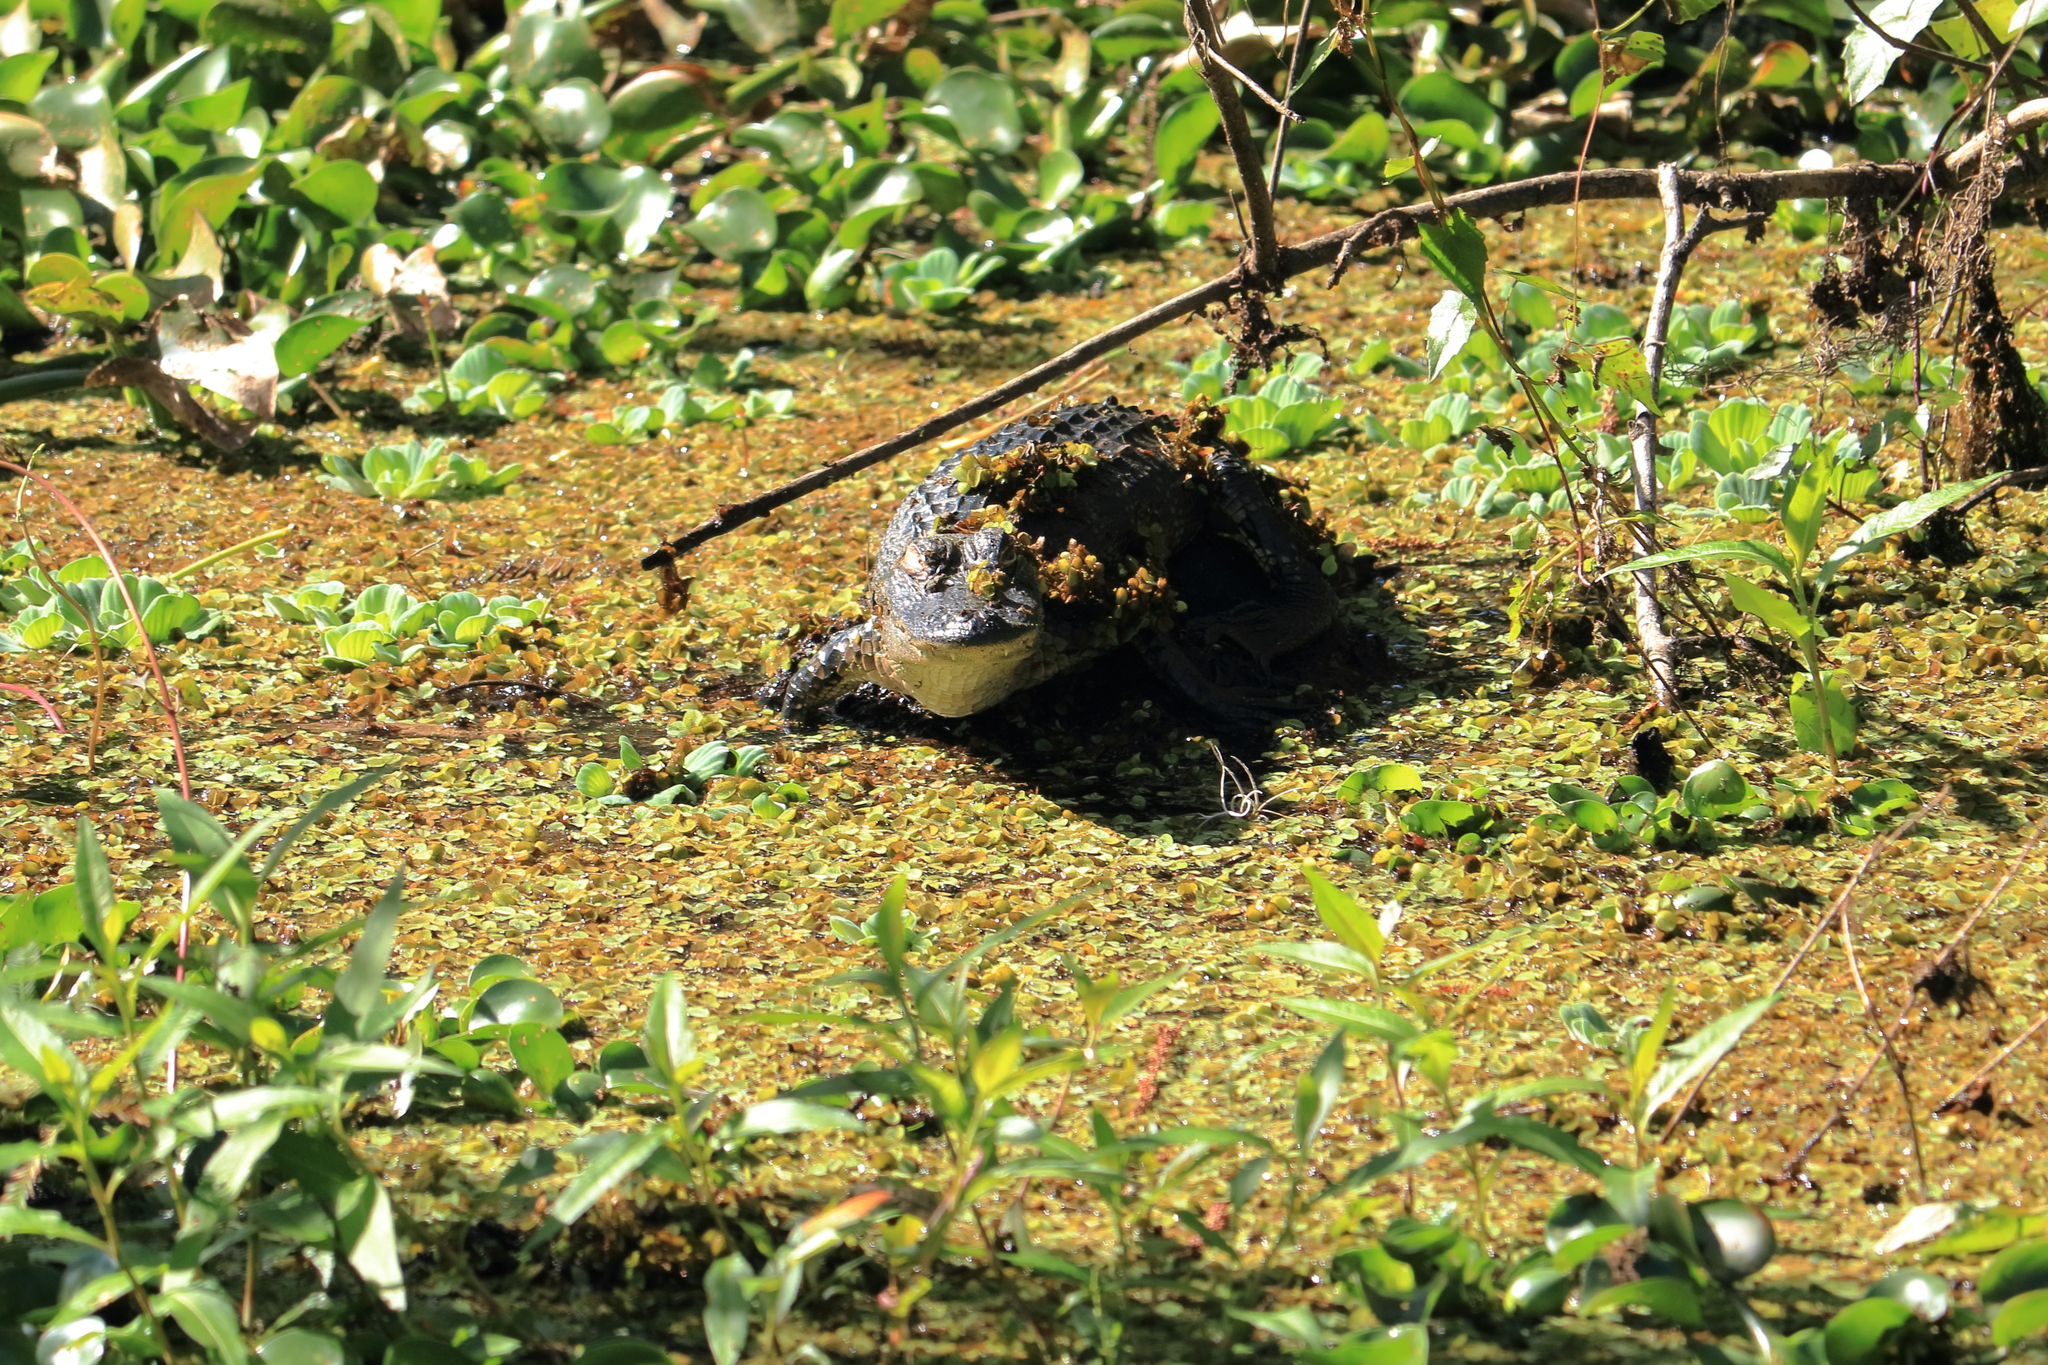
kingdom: Animalia
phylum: Chordata
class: Crocodylia
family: Alligatoridae
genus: Alligator
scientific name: Alligator mississippiensis
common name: American alligator
